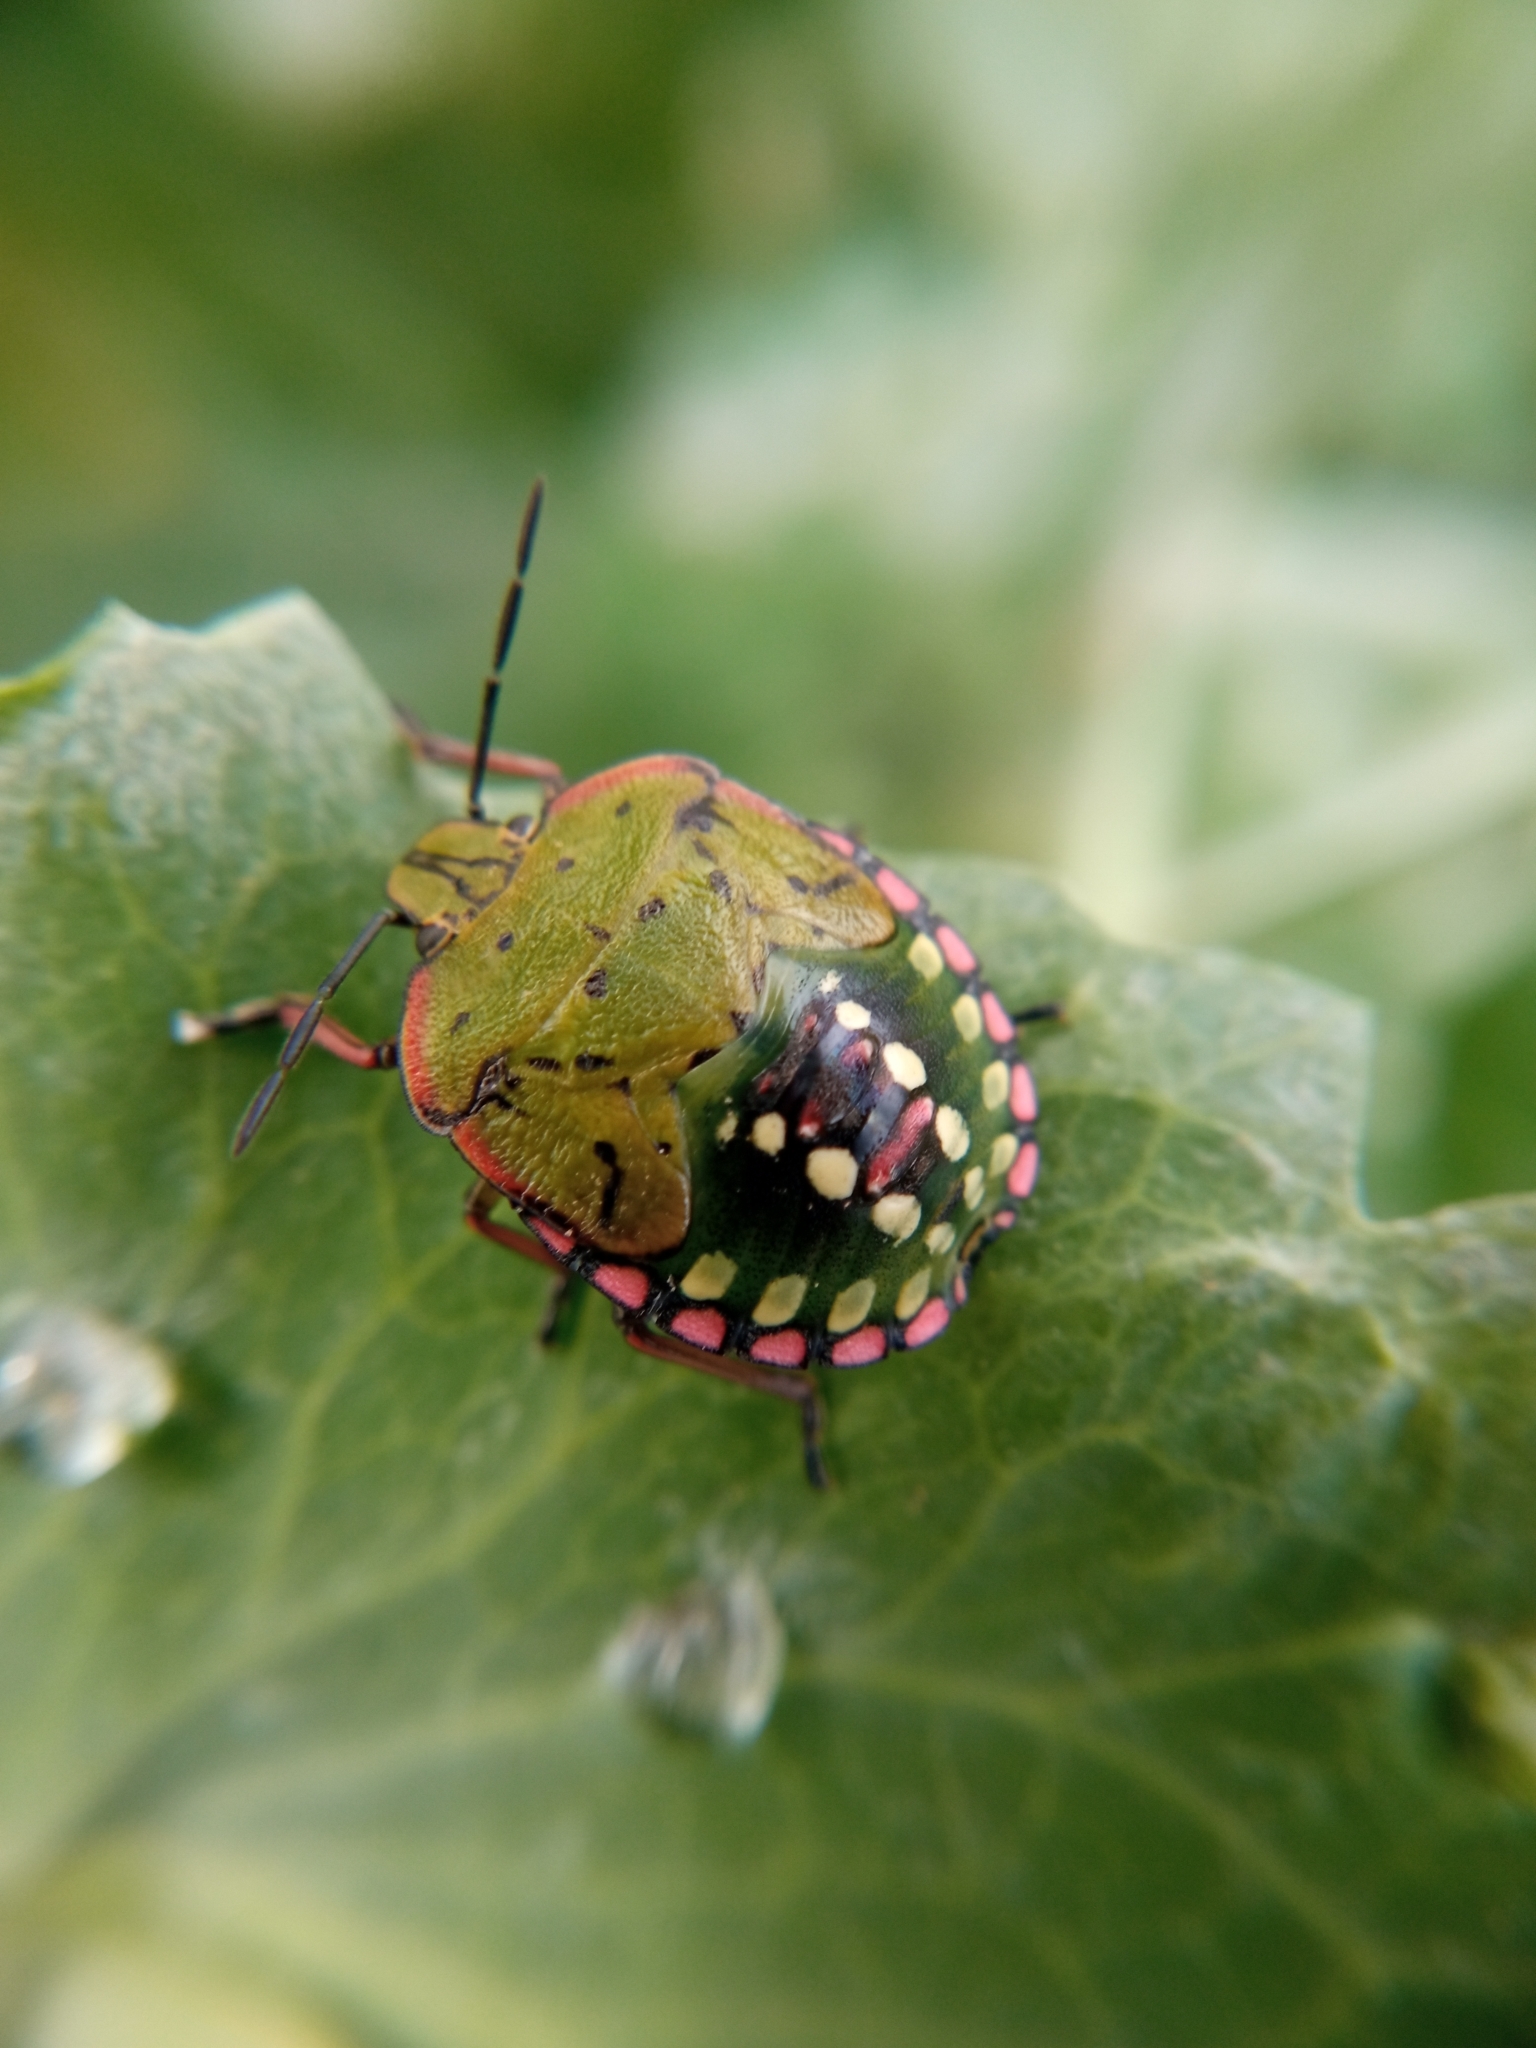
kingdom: Animalia
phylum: Arthropoda
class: Insecta
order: Hemiptera
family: Pentatomidae
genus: Nezara
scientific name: Nezara viridula
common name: Southern green stink bug
